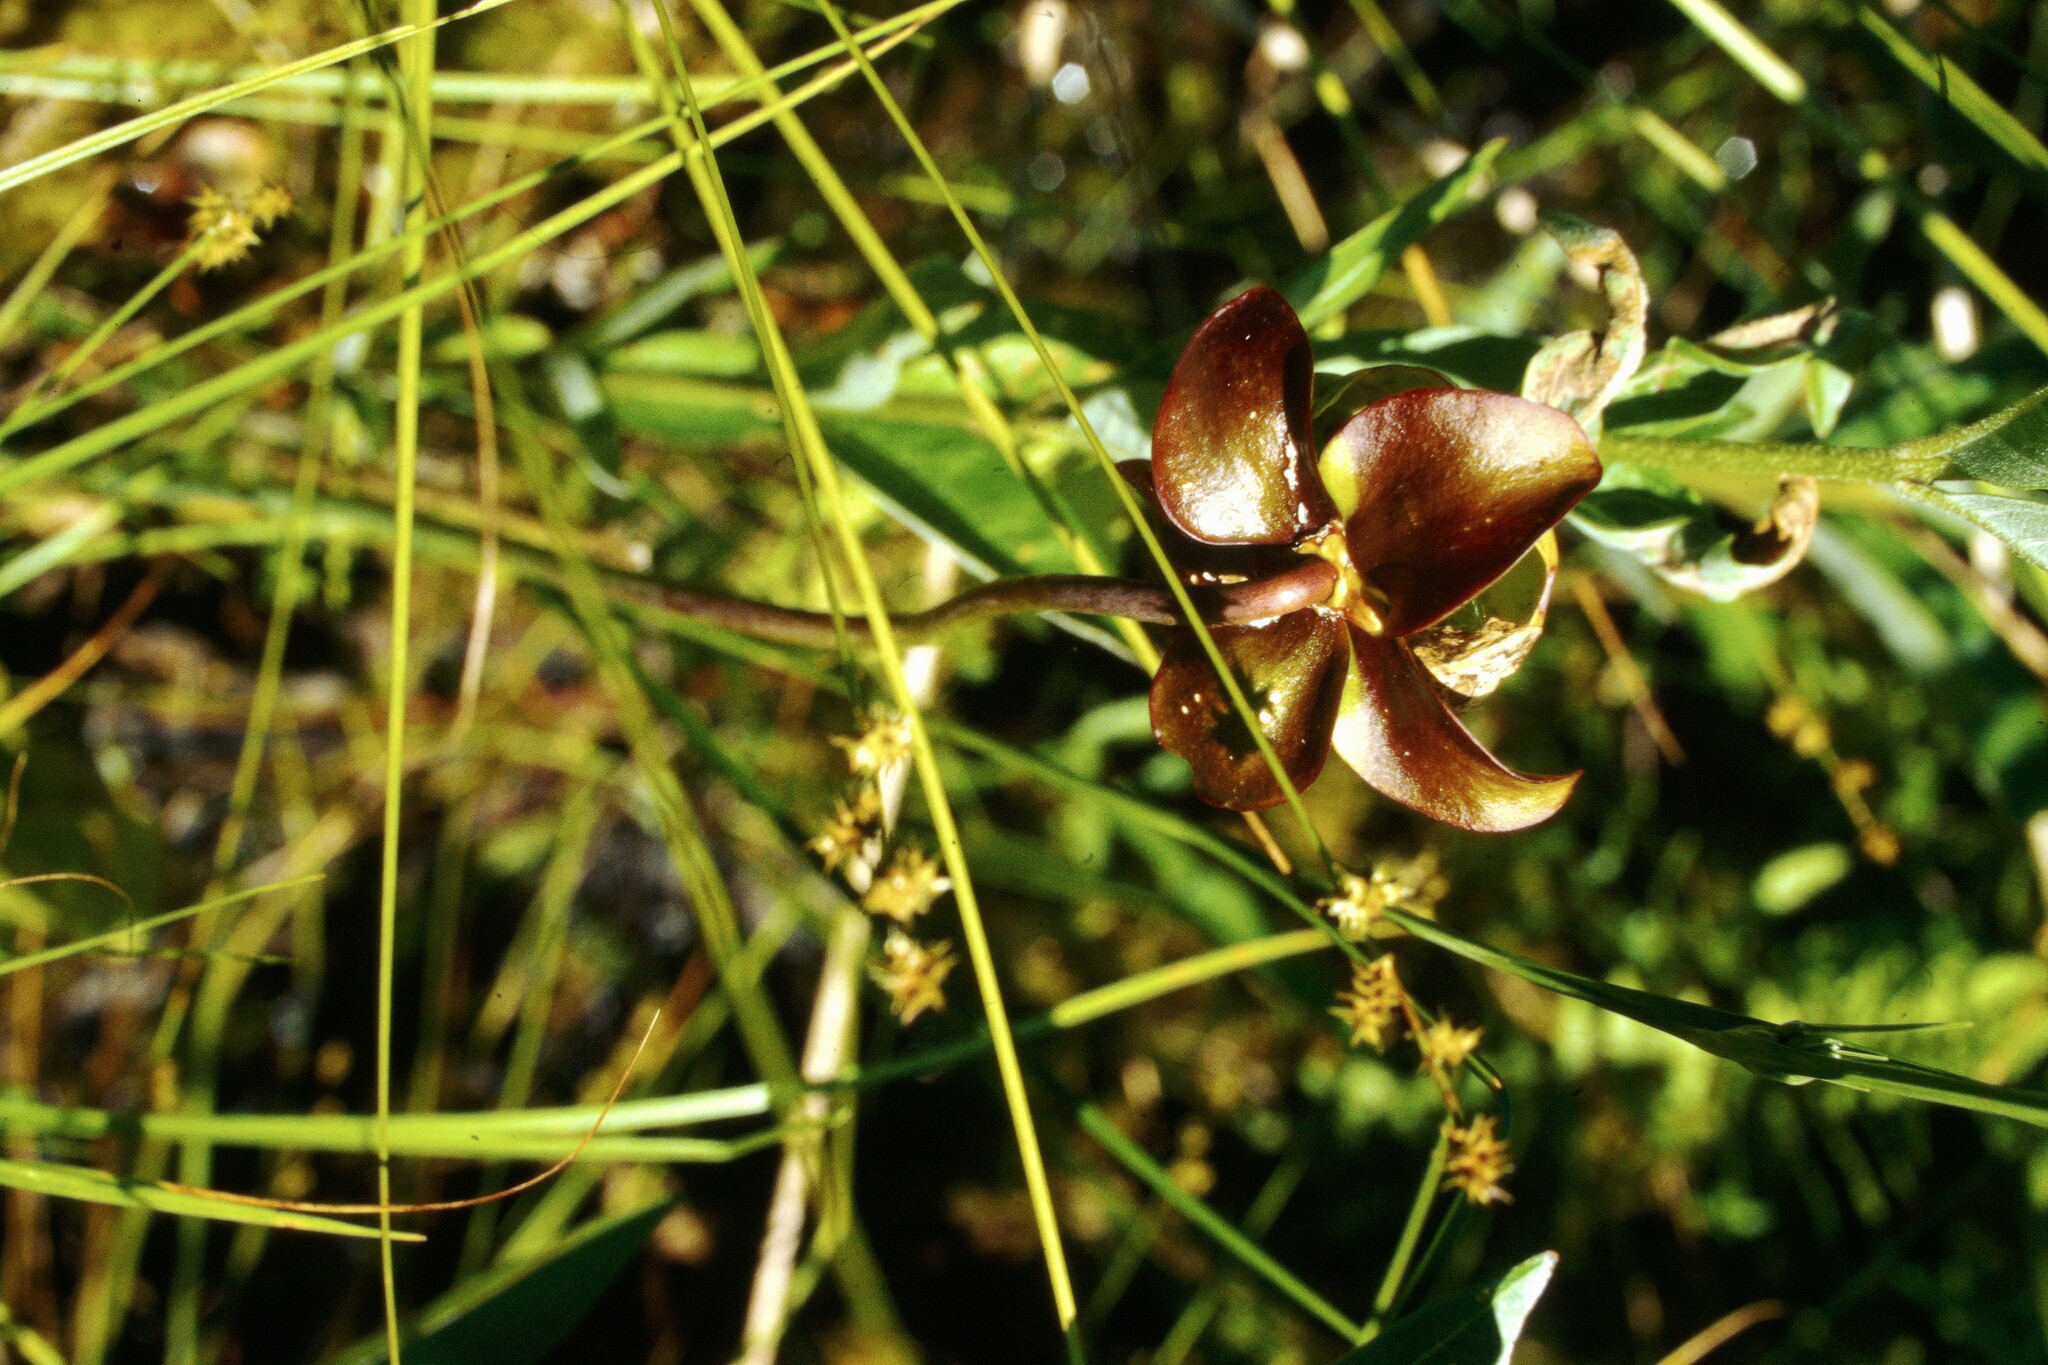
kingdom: Plantae
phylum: Tracheophyta
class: Magnoliopsida
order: Ericales
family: Sarraceniaceae
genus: Sarracenia
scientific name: Sarracenia purpurea
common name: Pitcherplant
